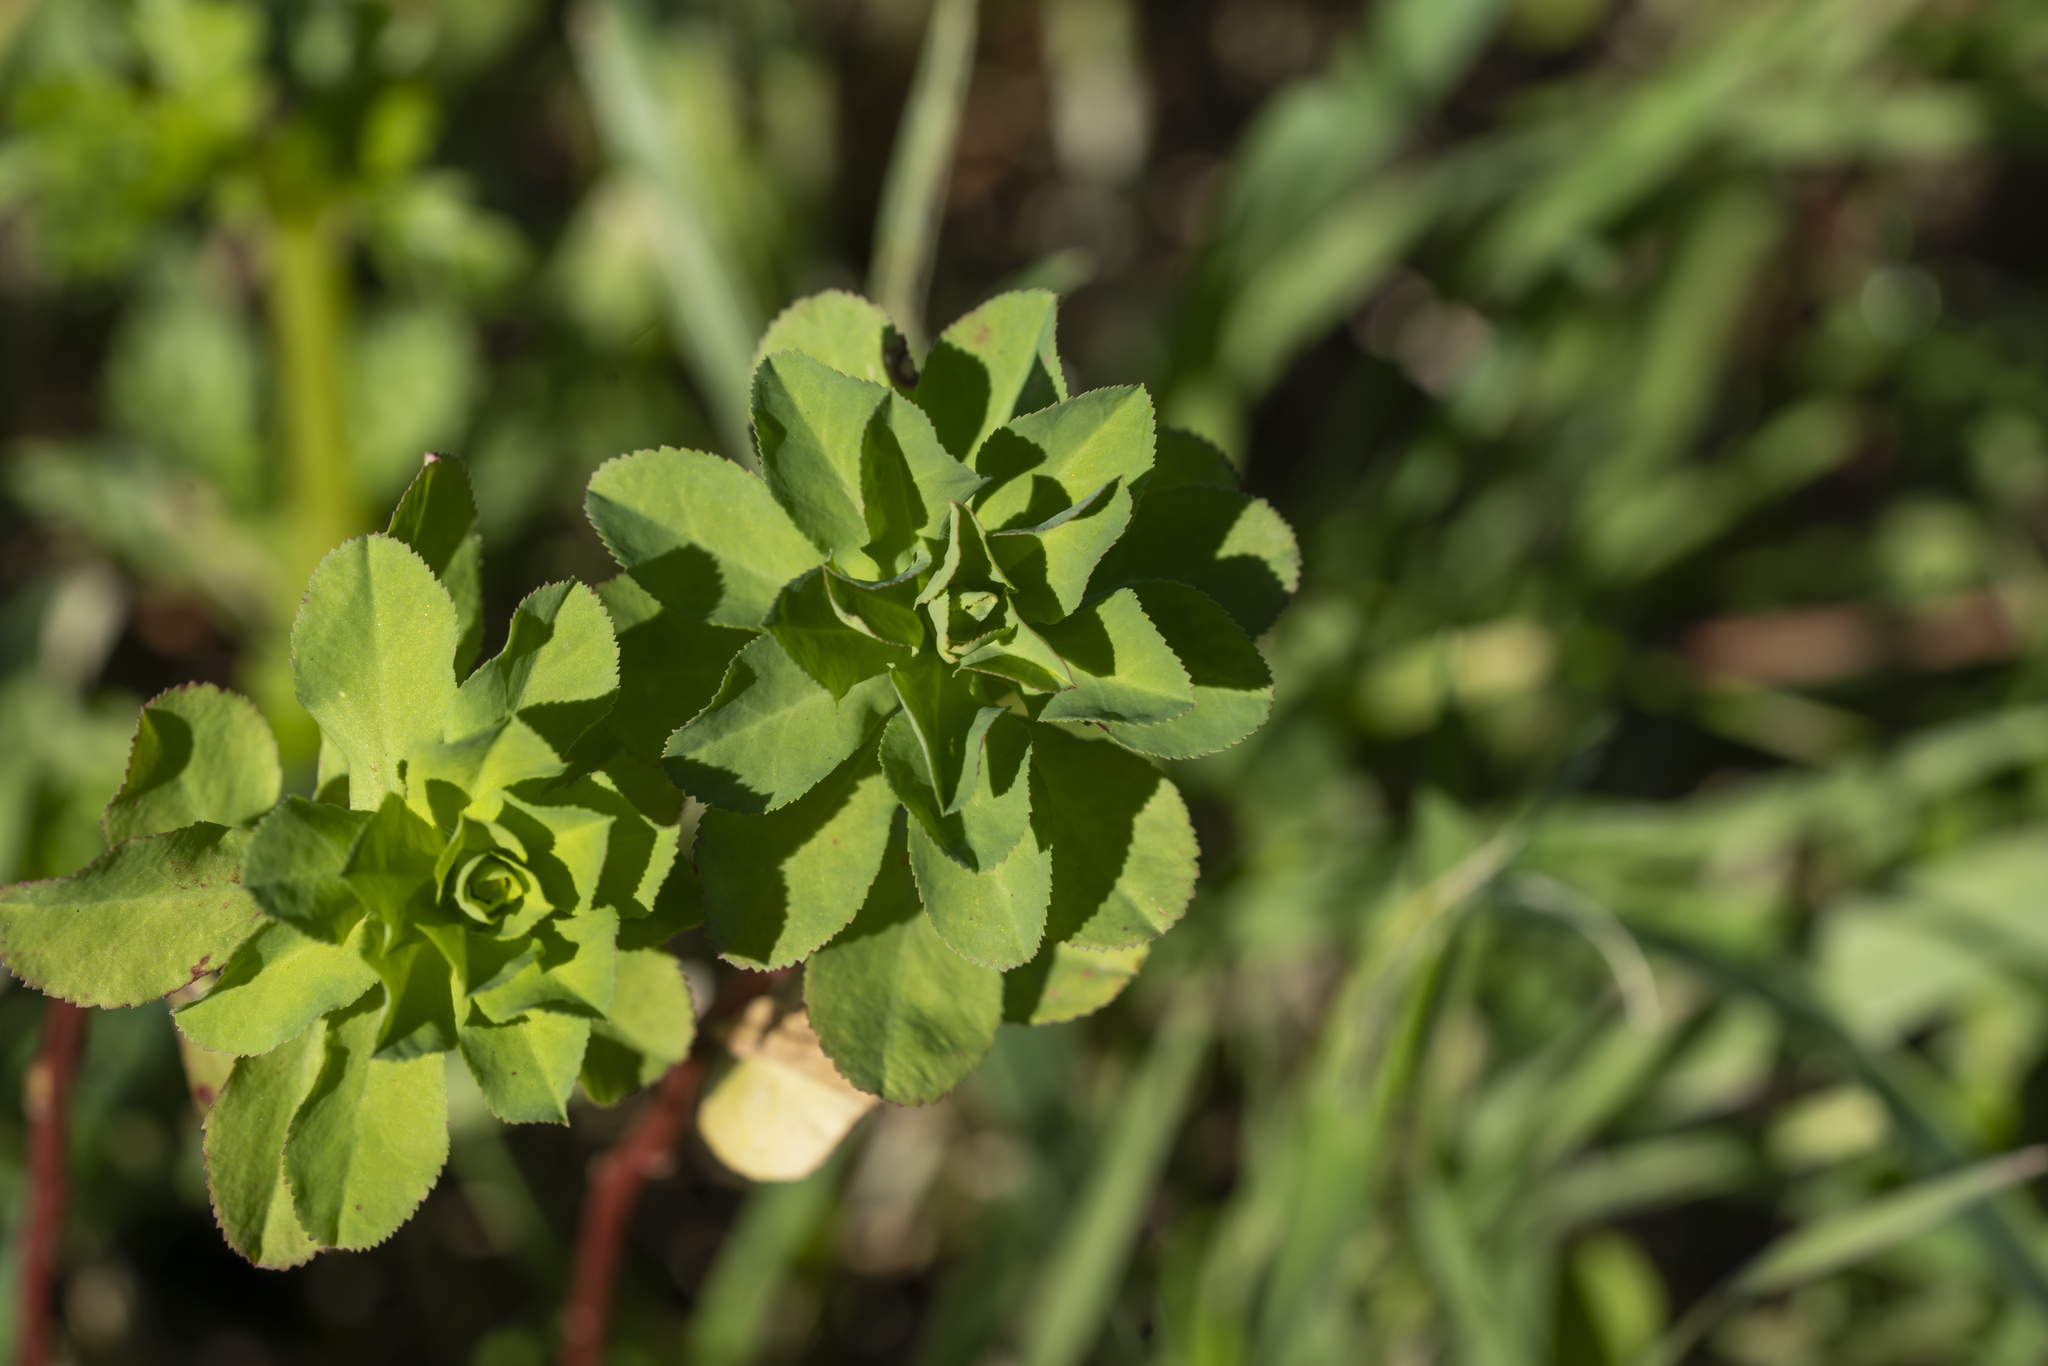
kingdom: Plantae
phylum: Tracheophyta
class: Magnoliopsida
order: Malpighiales
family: Euphorbiaceae
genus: Euphorbia
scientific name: Euphorbia helioscopia
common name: Sun spurge
